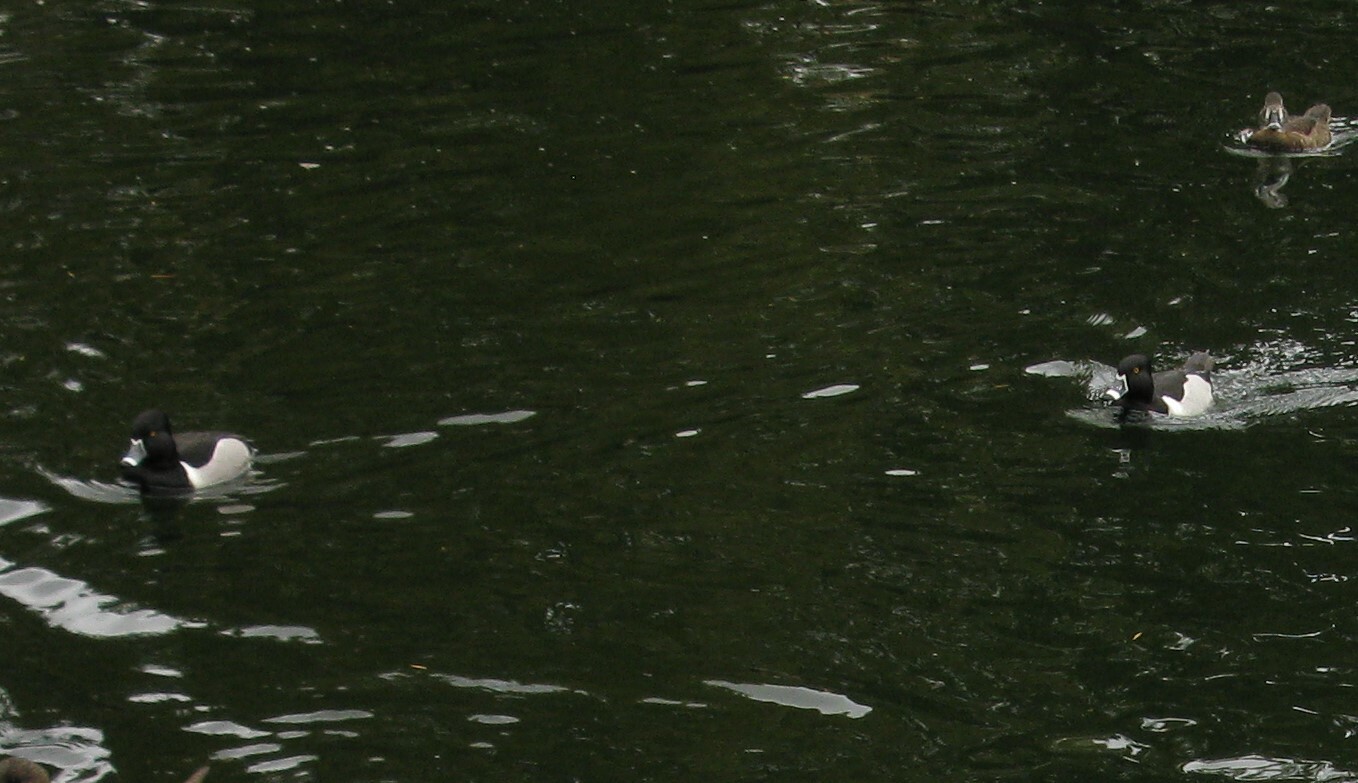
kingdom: Animalia
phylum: Chordata
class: Aves
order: Anseriformes
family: Anatidae
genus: Aythya
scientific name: Aythya collaris
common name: Ring-necked duck
